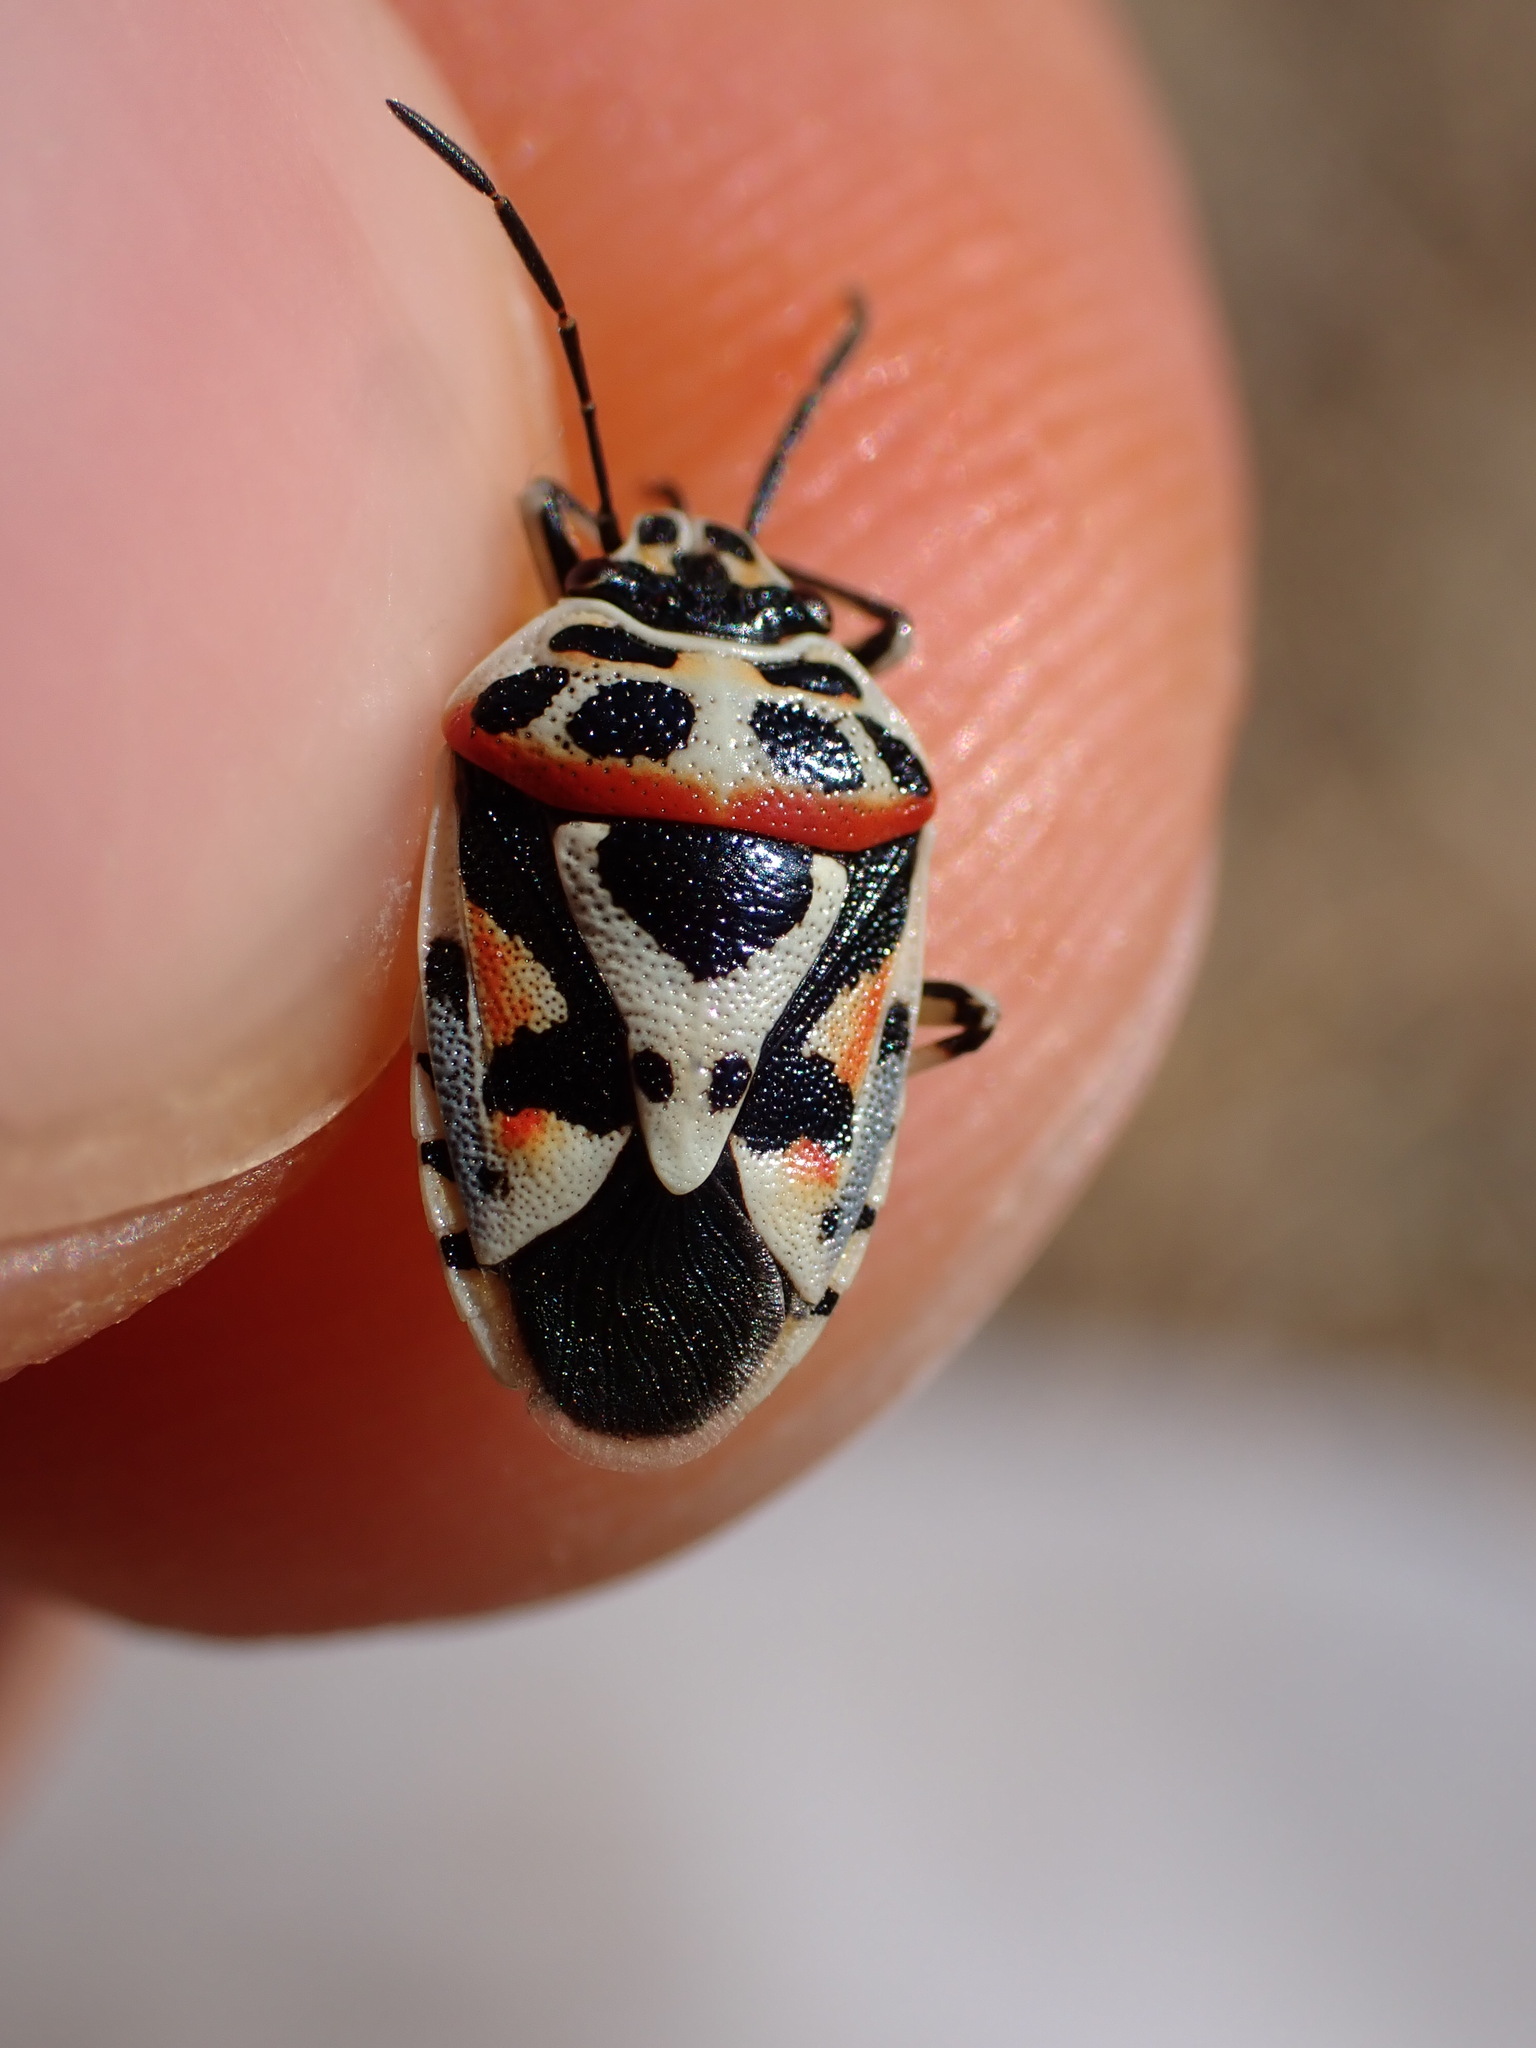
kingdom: Animalia
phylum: Arthropoda
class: Insecta
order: Hemiptera
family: Pentatomidae
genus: Eurydema
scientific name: Eurydema ornata
